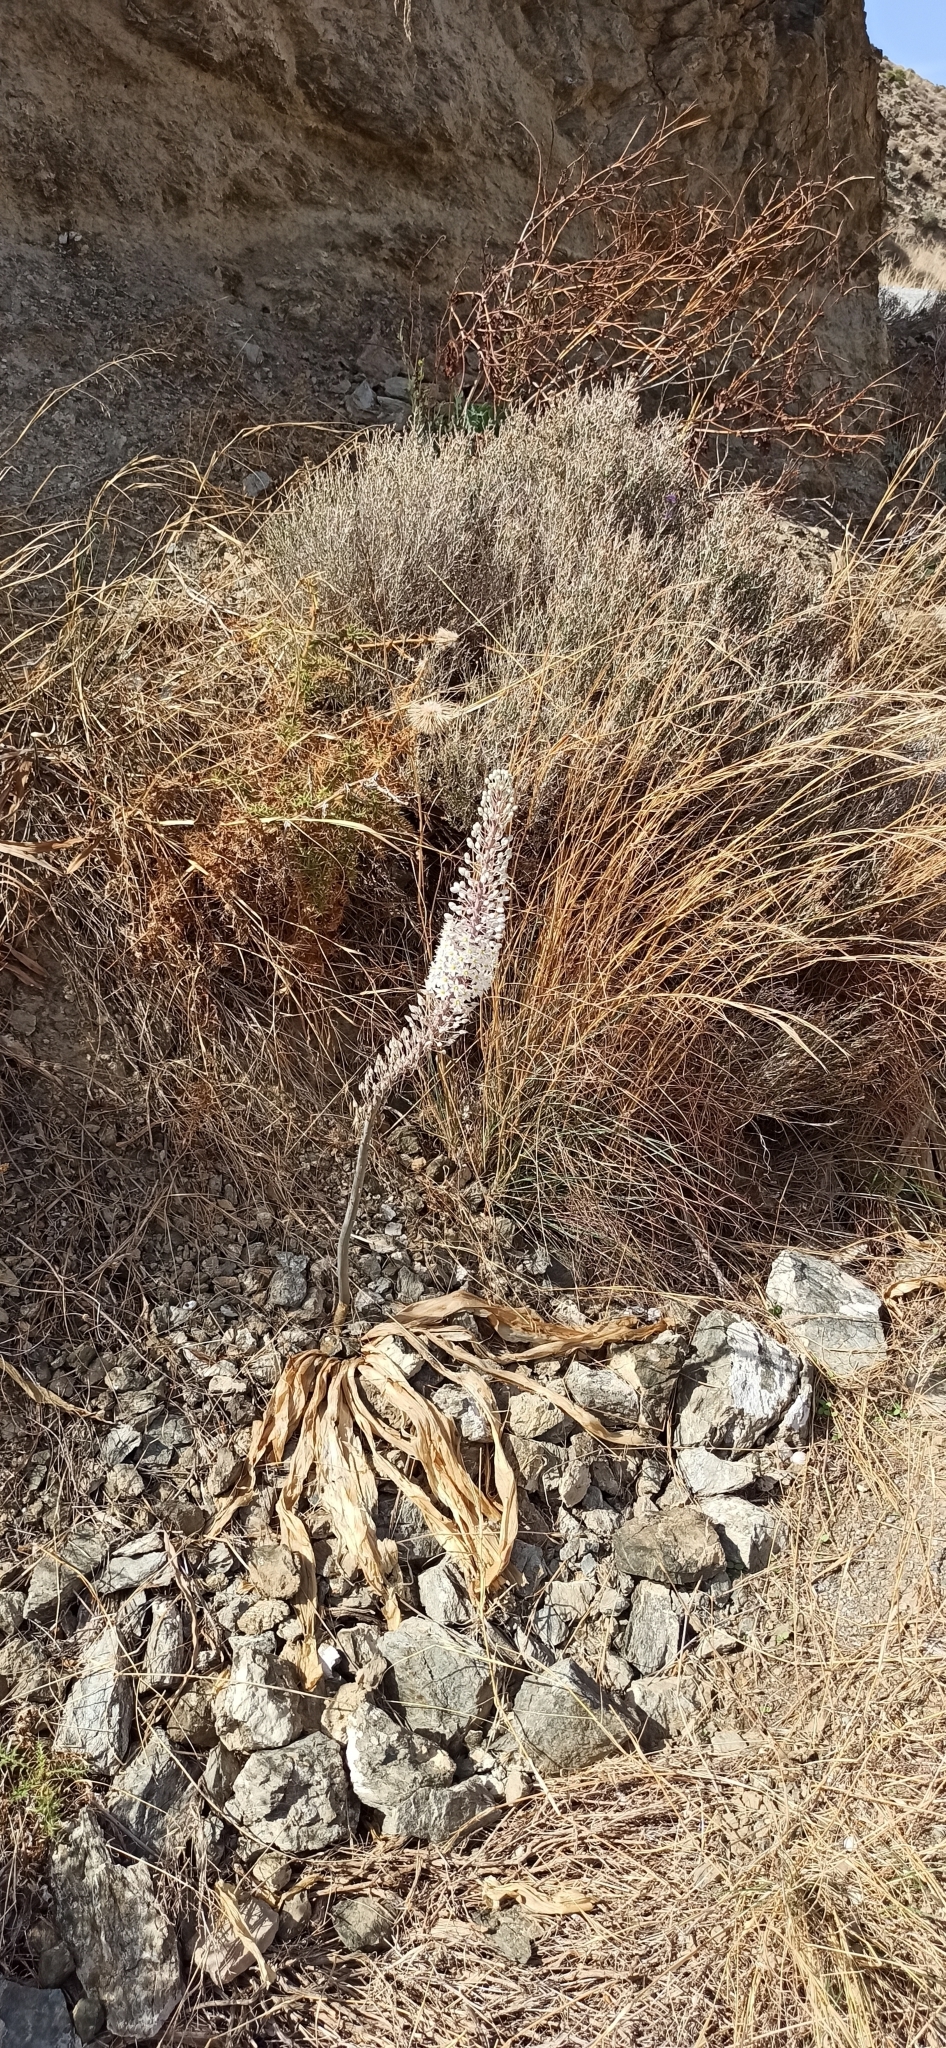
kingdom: Plantae
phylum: Tracheophyta
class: Liliopsida
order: Asparagales
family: Asparagaceae
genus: Drimia
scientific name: Drimia numidica
